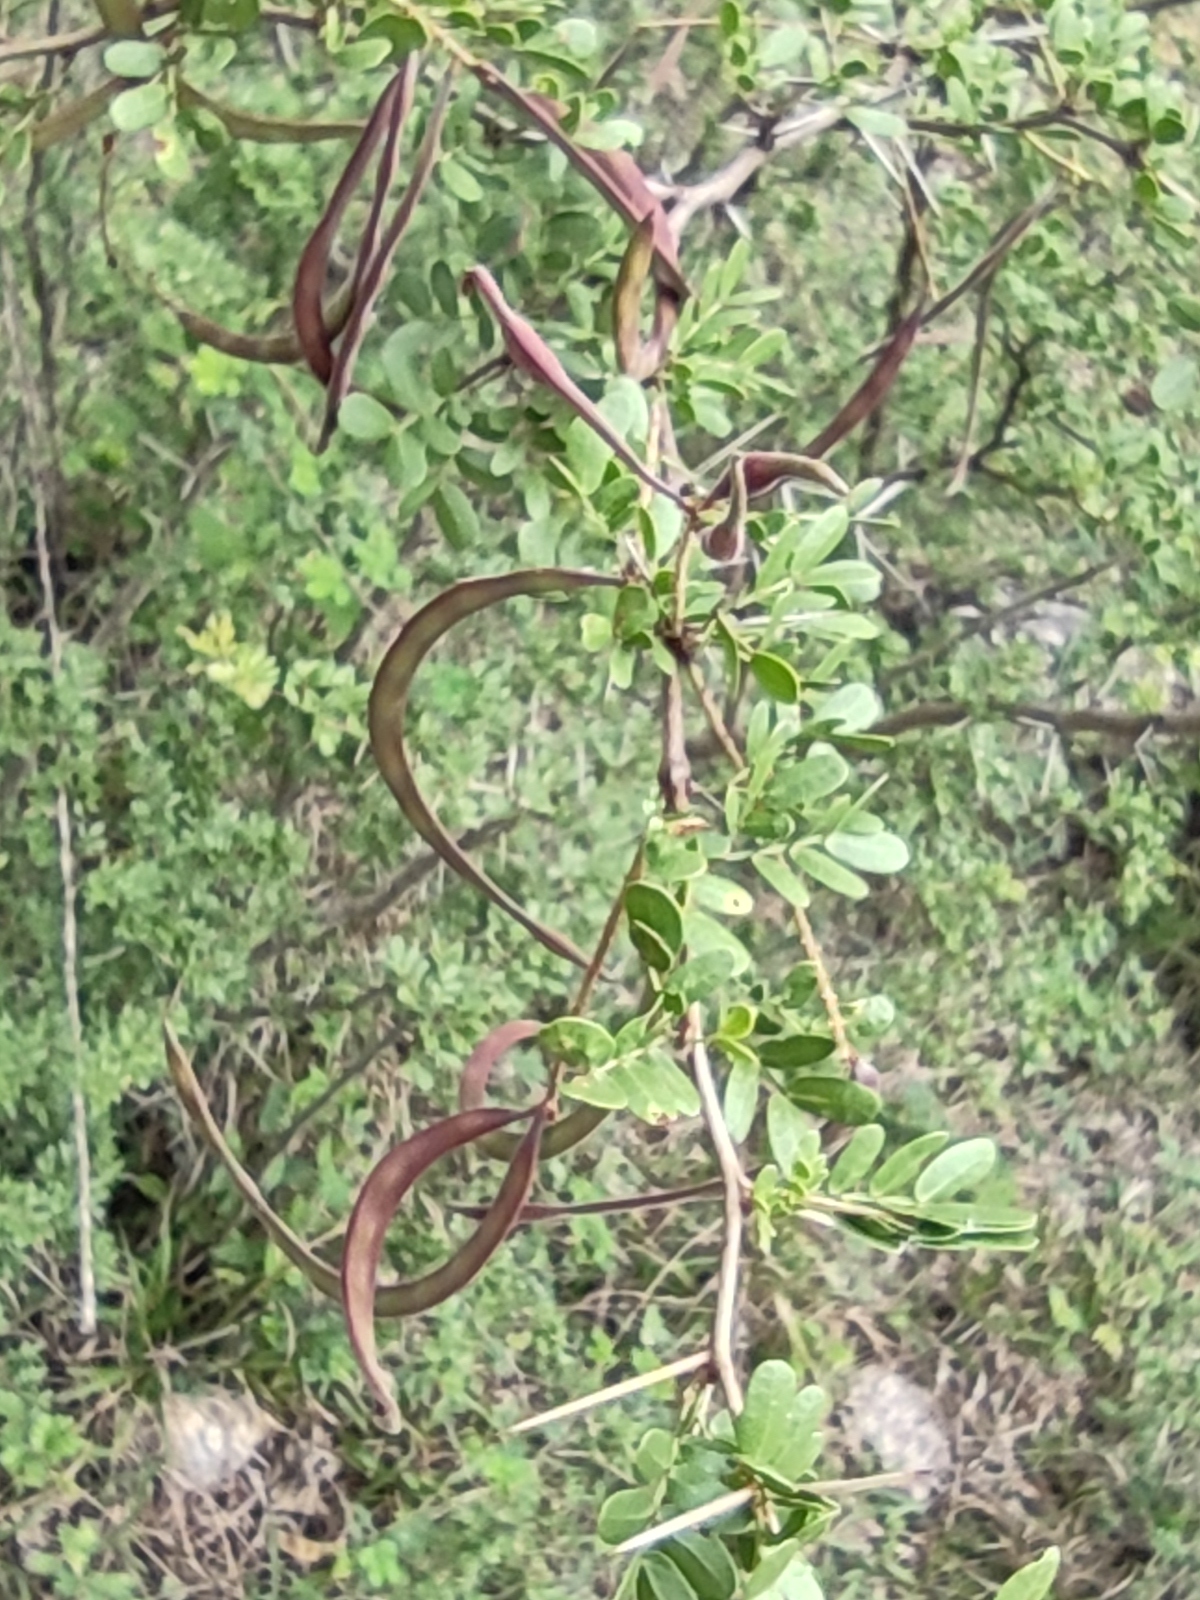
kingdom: Plantae
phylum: Tracheophyta
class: Magnoliopsida
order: Fabales
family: Fabaceae
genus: Vachellia
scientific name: Vachellia rigidula
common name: Blackbrush
